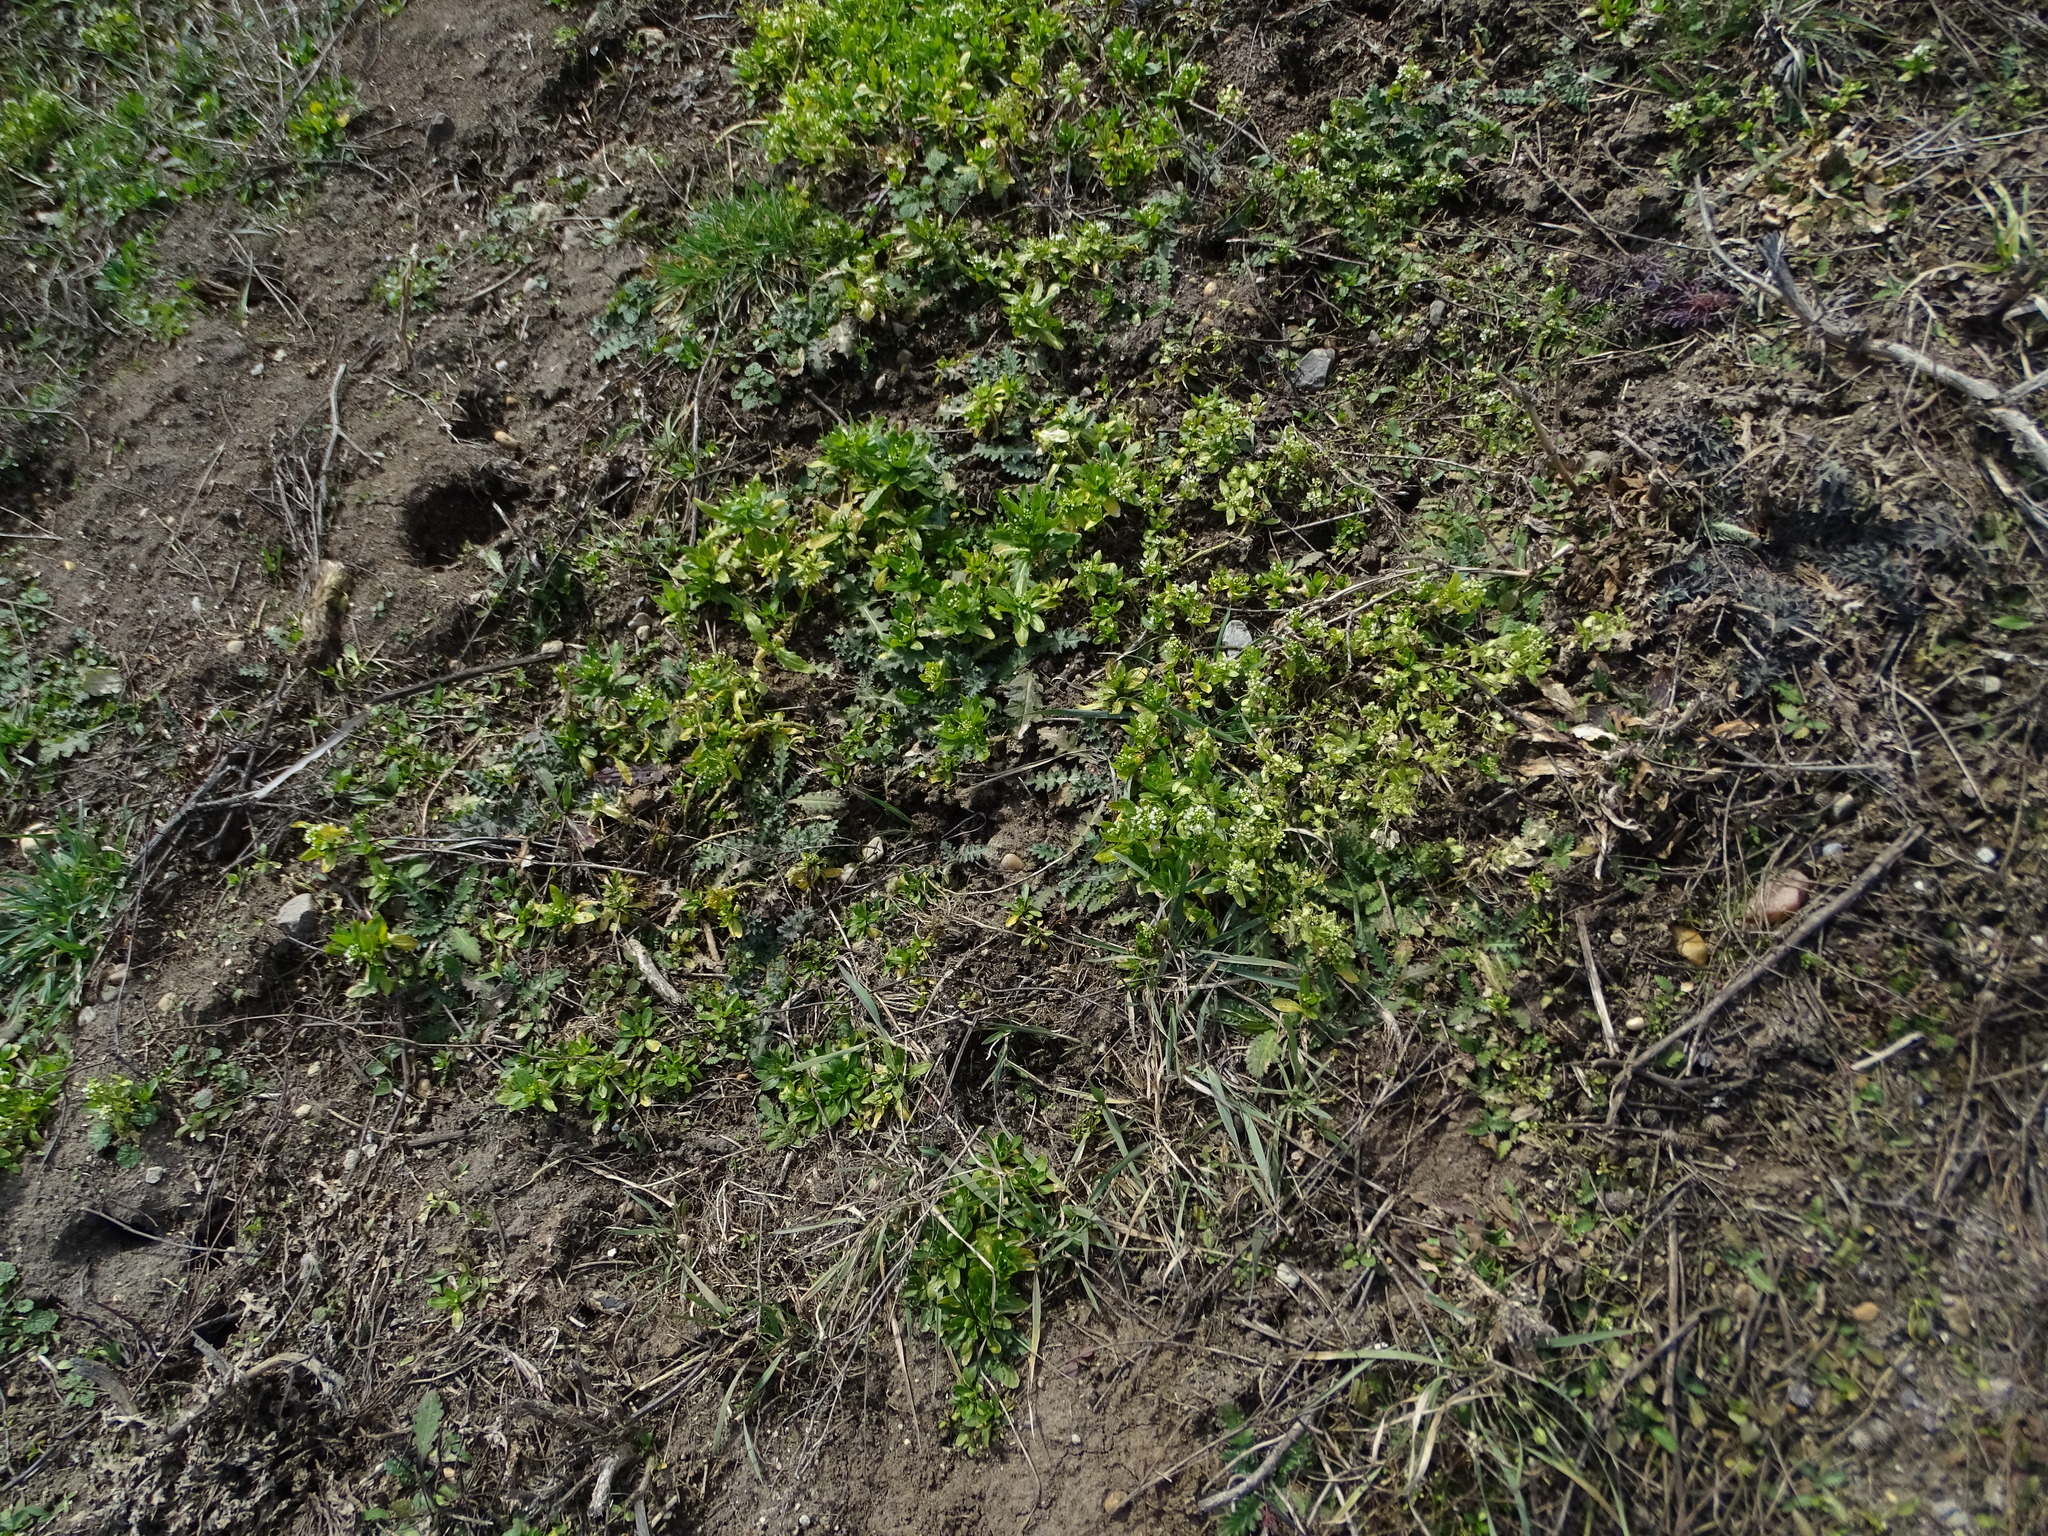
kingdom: Plantae
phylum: Tracheophyta
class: Magnoliopsida
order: Brassicales
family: Brassicaceae
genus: Thlaspi
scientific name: Thlaspi arvense
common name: Field pennycress
